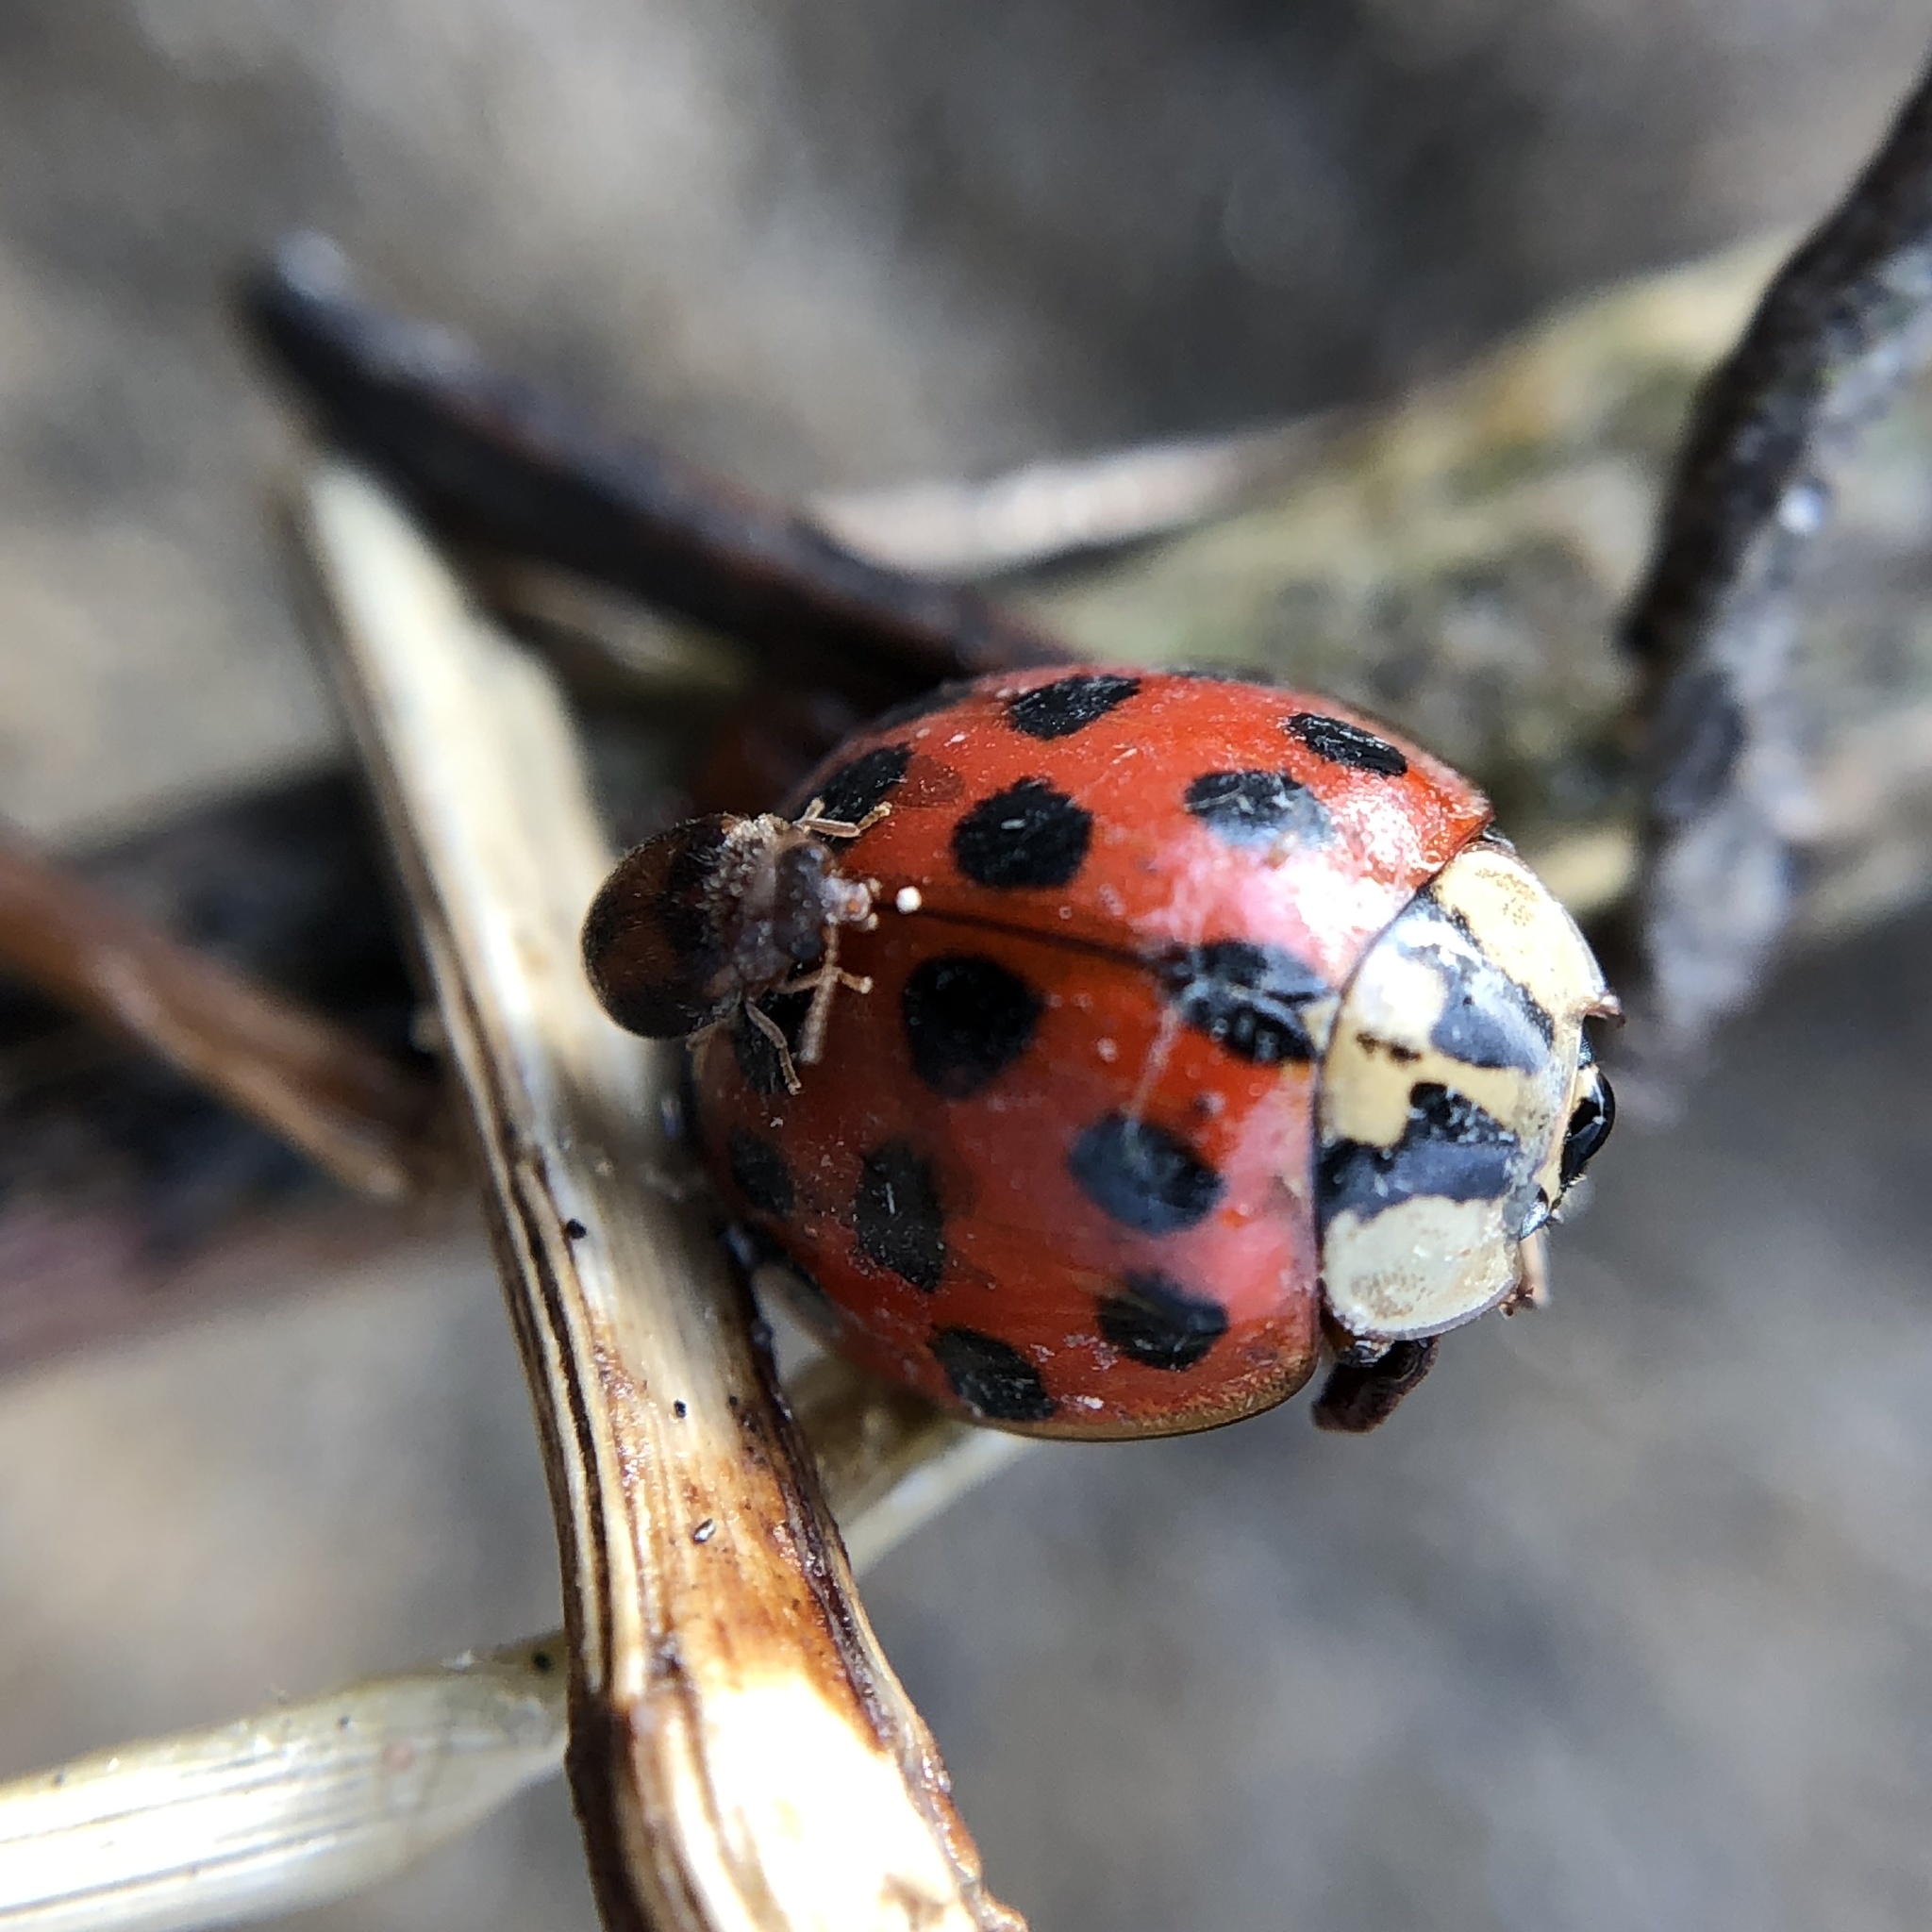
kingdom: Animalia
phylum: Arthropoda
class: Insecta
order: Coleoptera
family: Coccinellidae
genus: Harmonia
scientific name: Harmonia axyridis
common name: Harlequin ladybird
